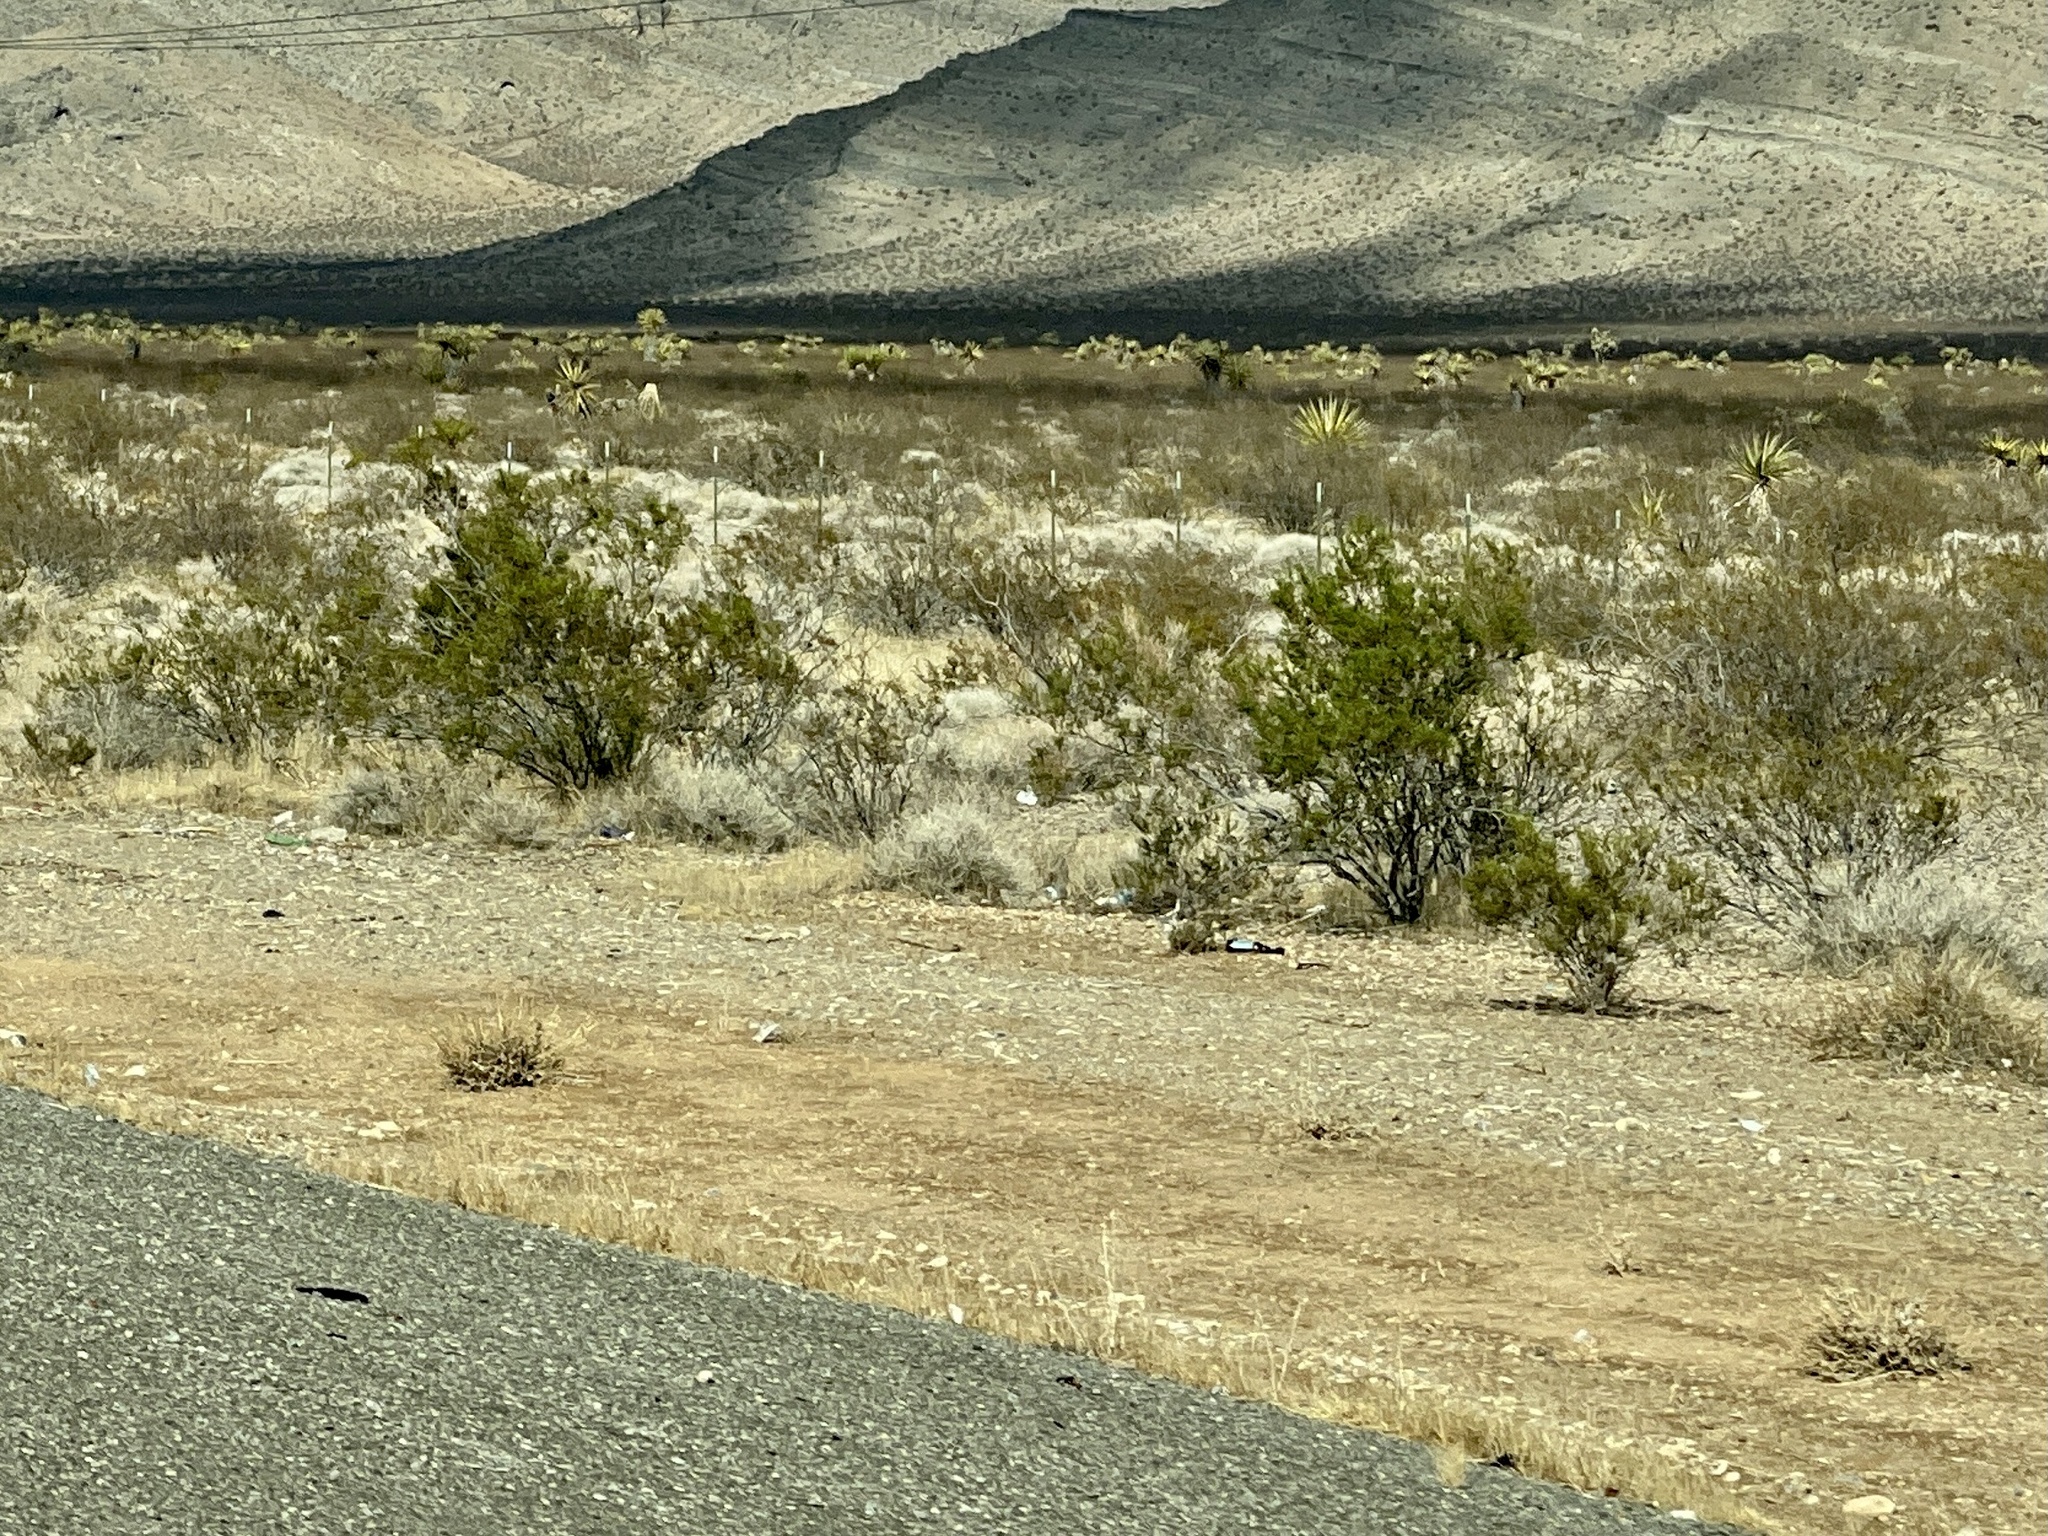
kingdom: Plantae
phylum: Tracheophyta
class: Magnoliopsida
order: Zygophyllales
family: Zygophyllaceae
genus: Larrea
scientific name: Larrea tridentata
